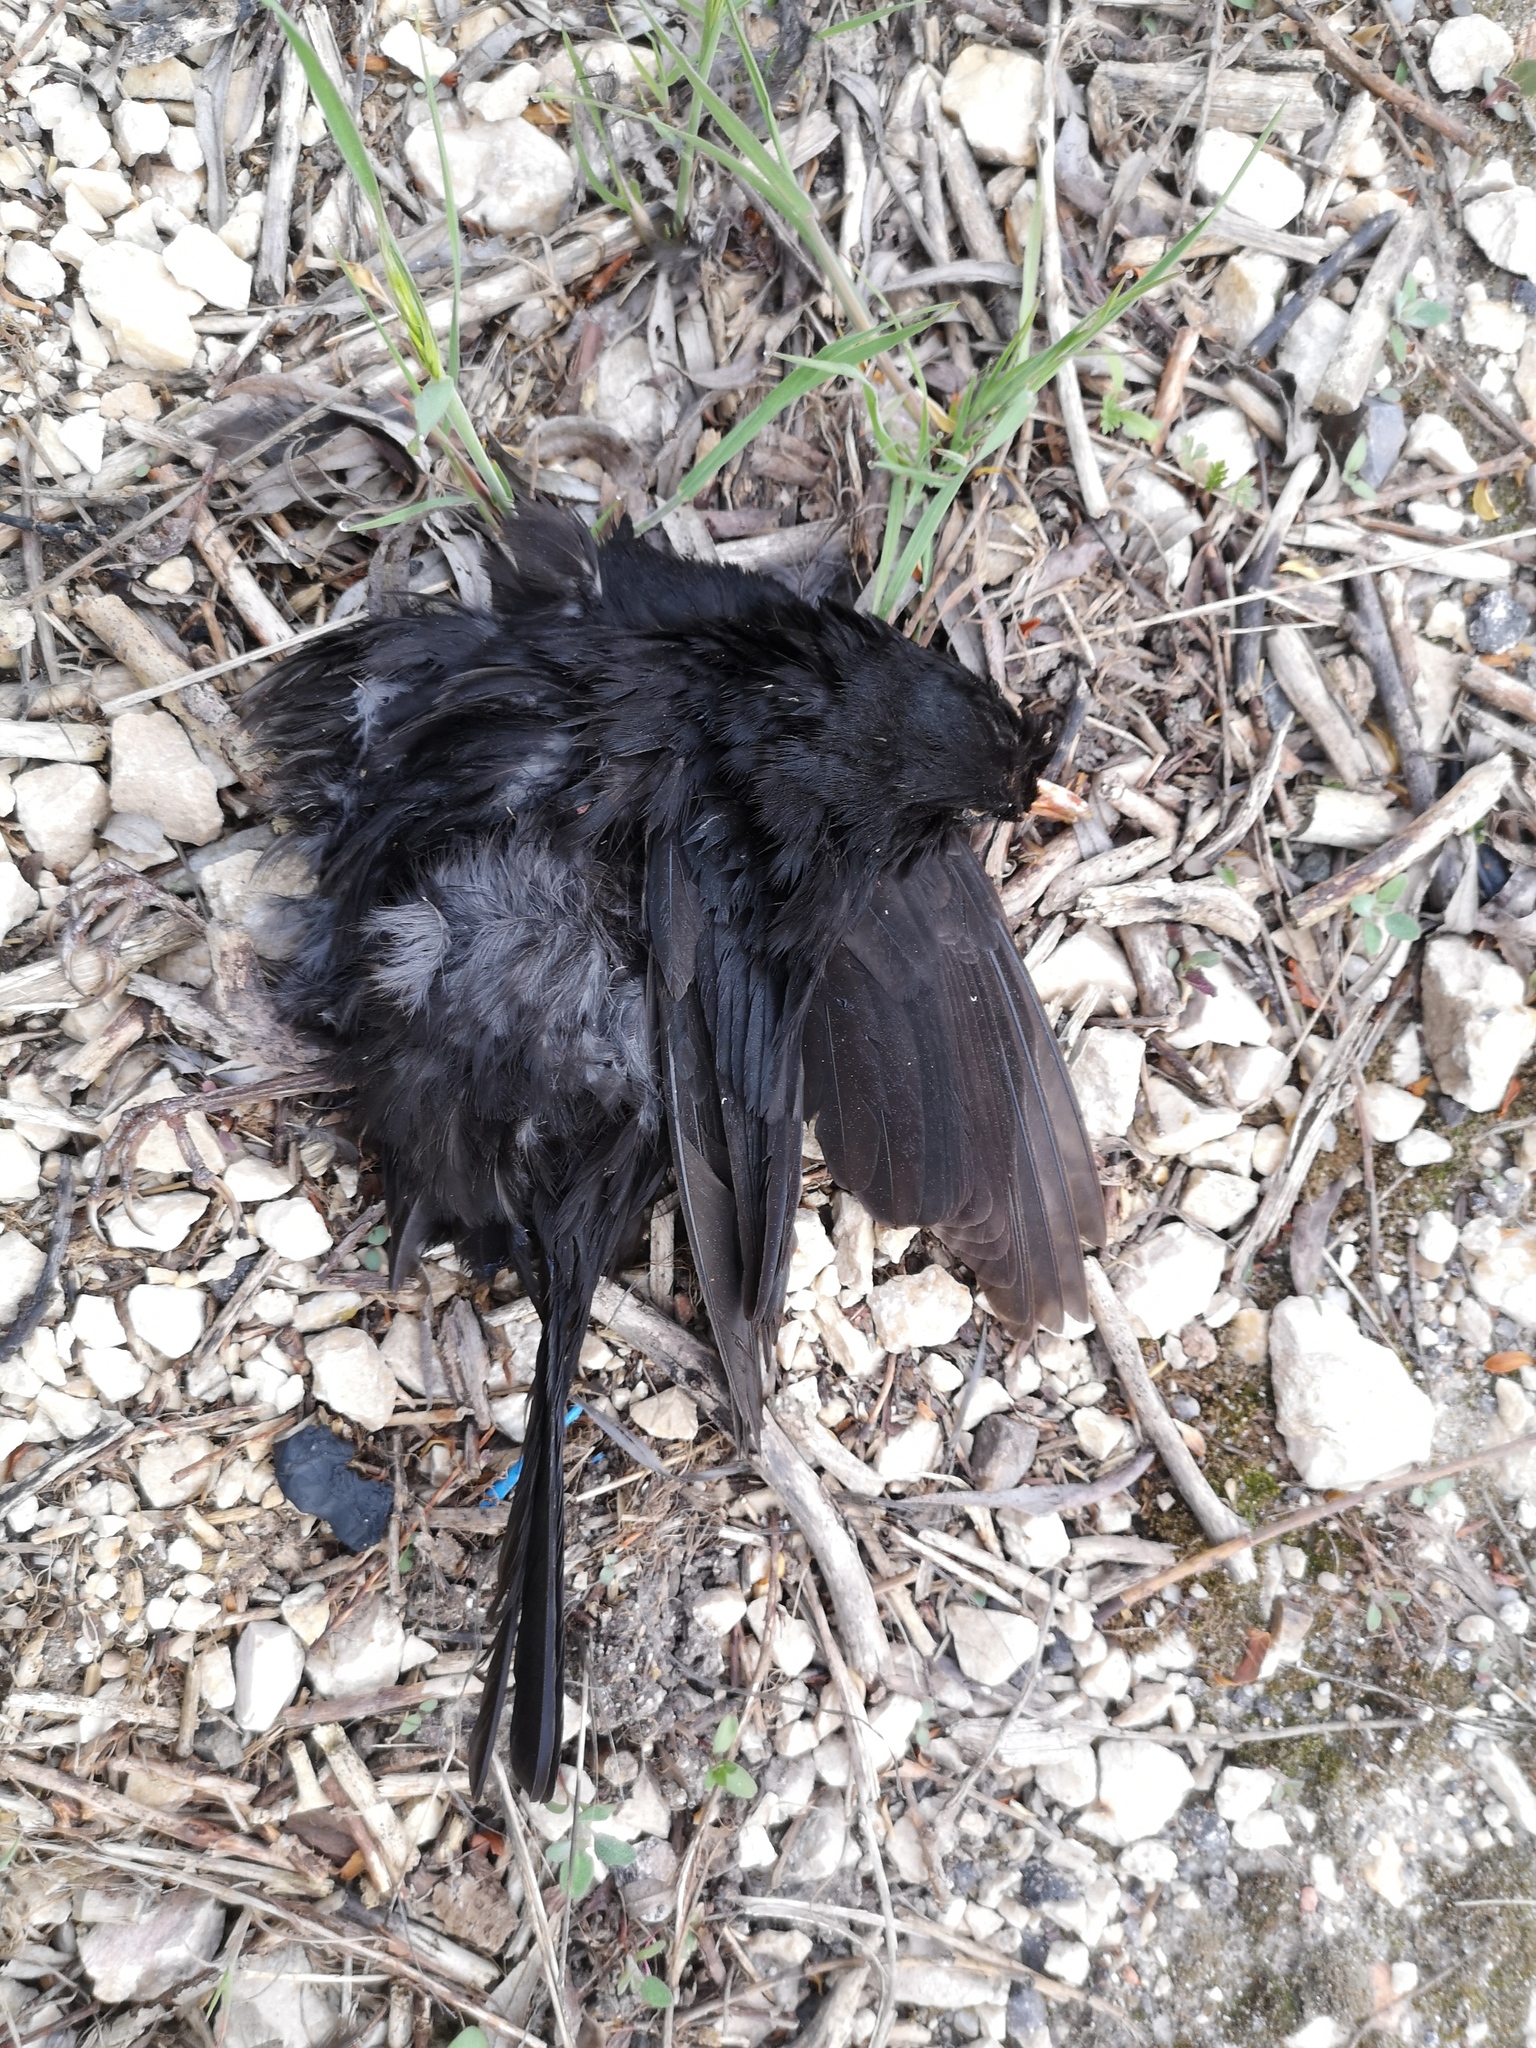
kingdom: Animalia
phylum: Chordata
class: Aves
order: Passeriformes
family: Turdidae
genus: Turdus
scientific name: Turdus merula
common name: Common blackbird
